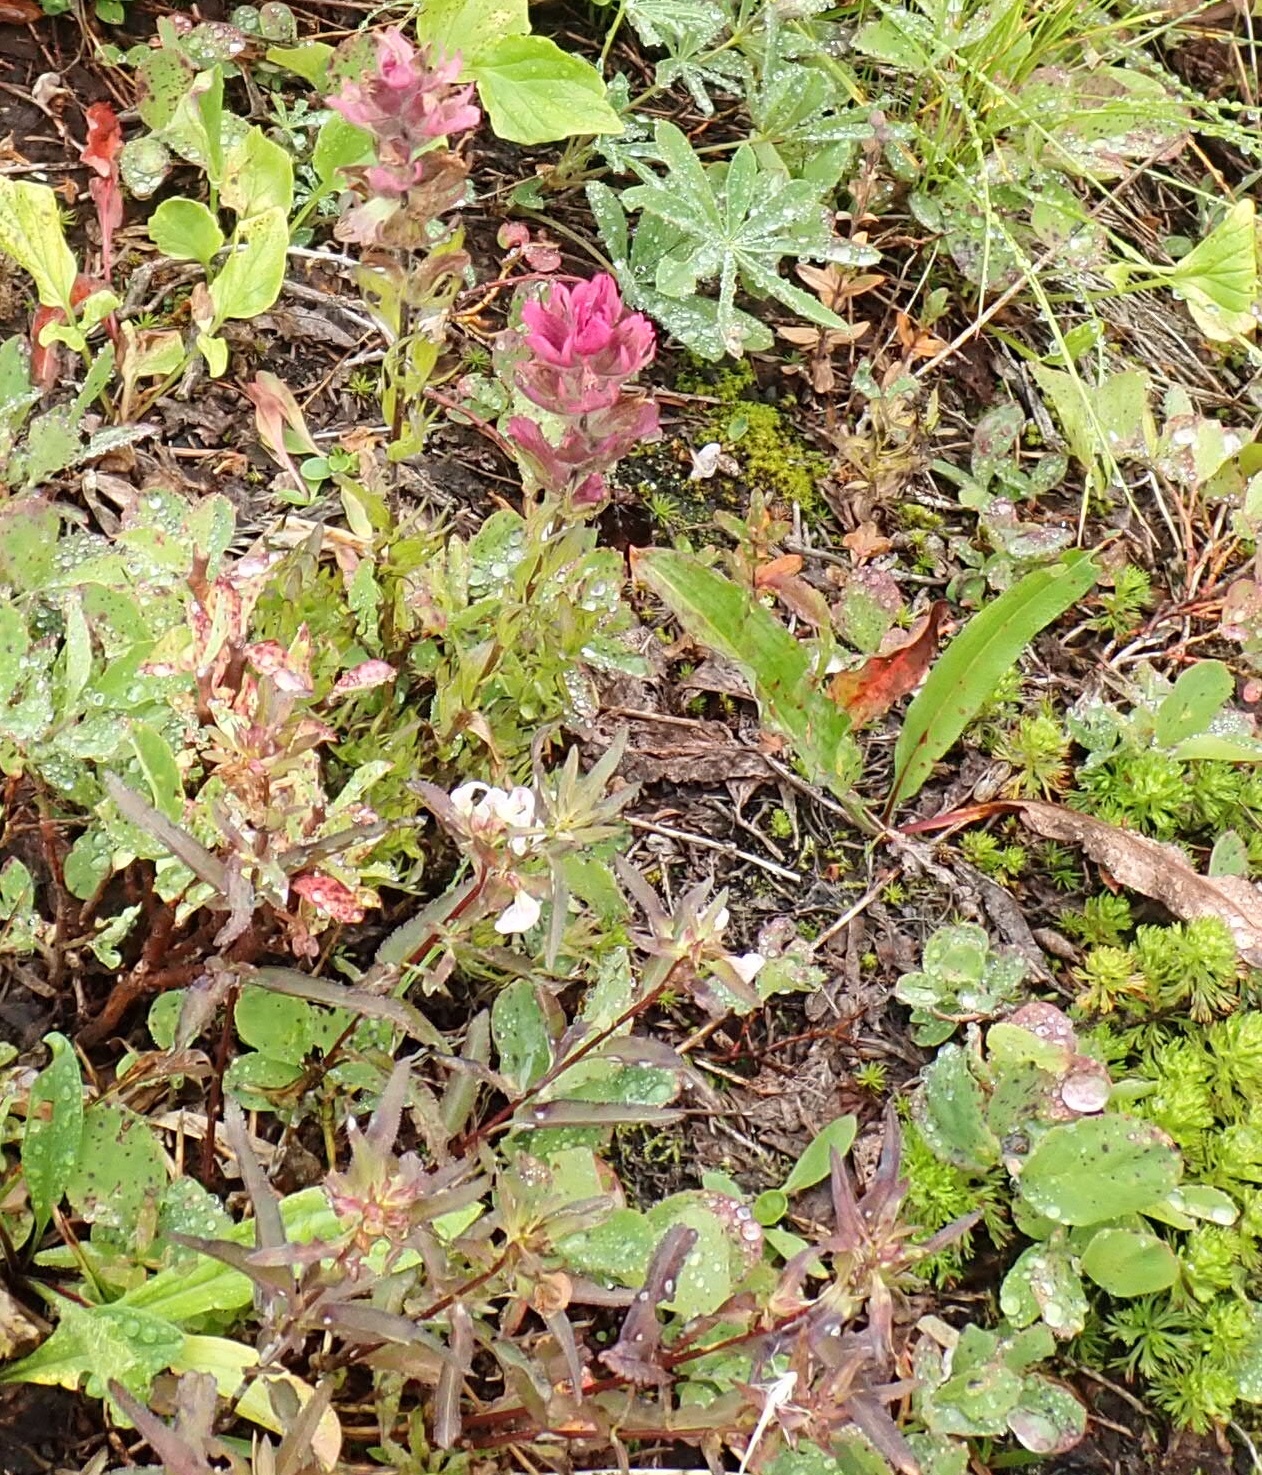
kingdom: Plantae
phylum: Tracheophyta
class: Magnoliopsida
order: Lamiales
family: Orobanchaceae
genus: Castilleja
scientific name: Castilleja elmeri
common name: Elmer's paintbrush
